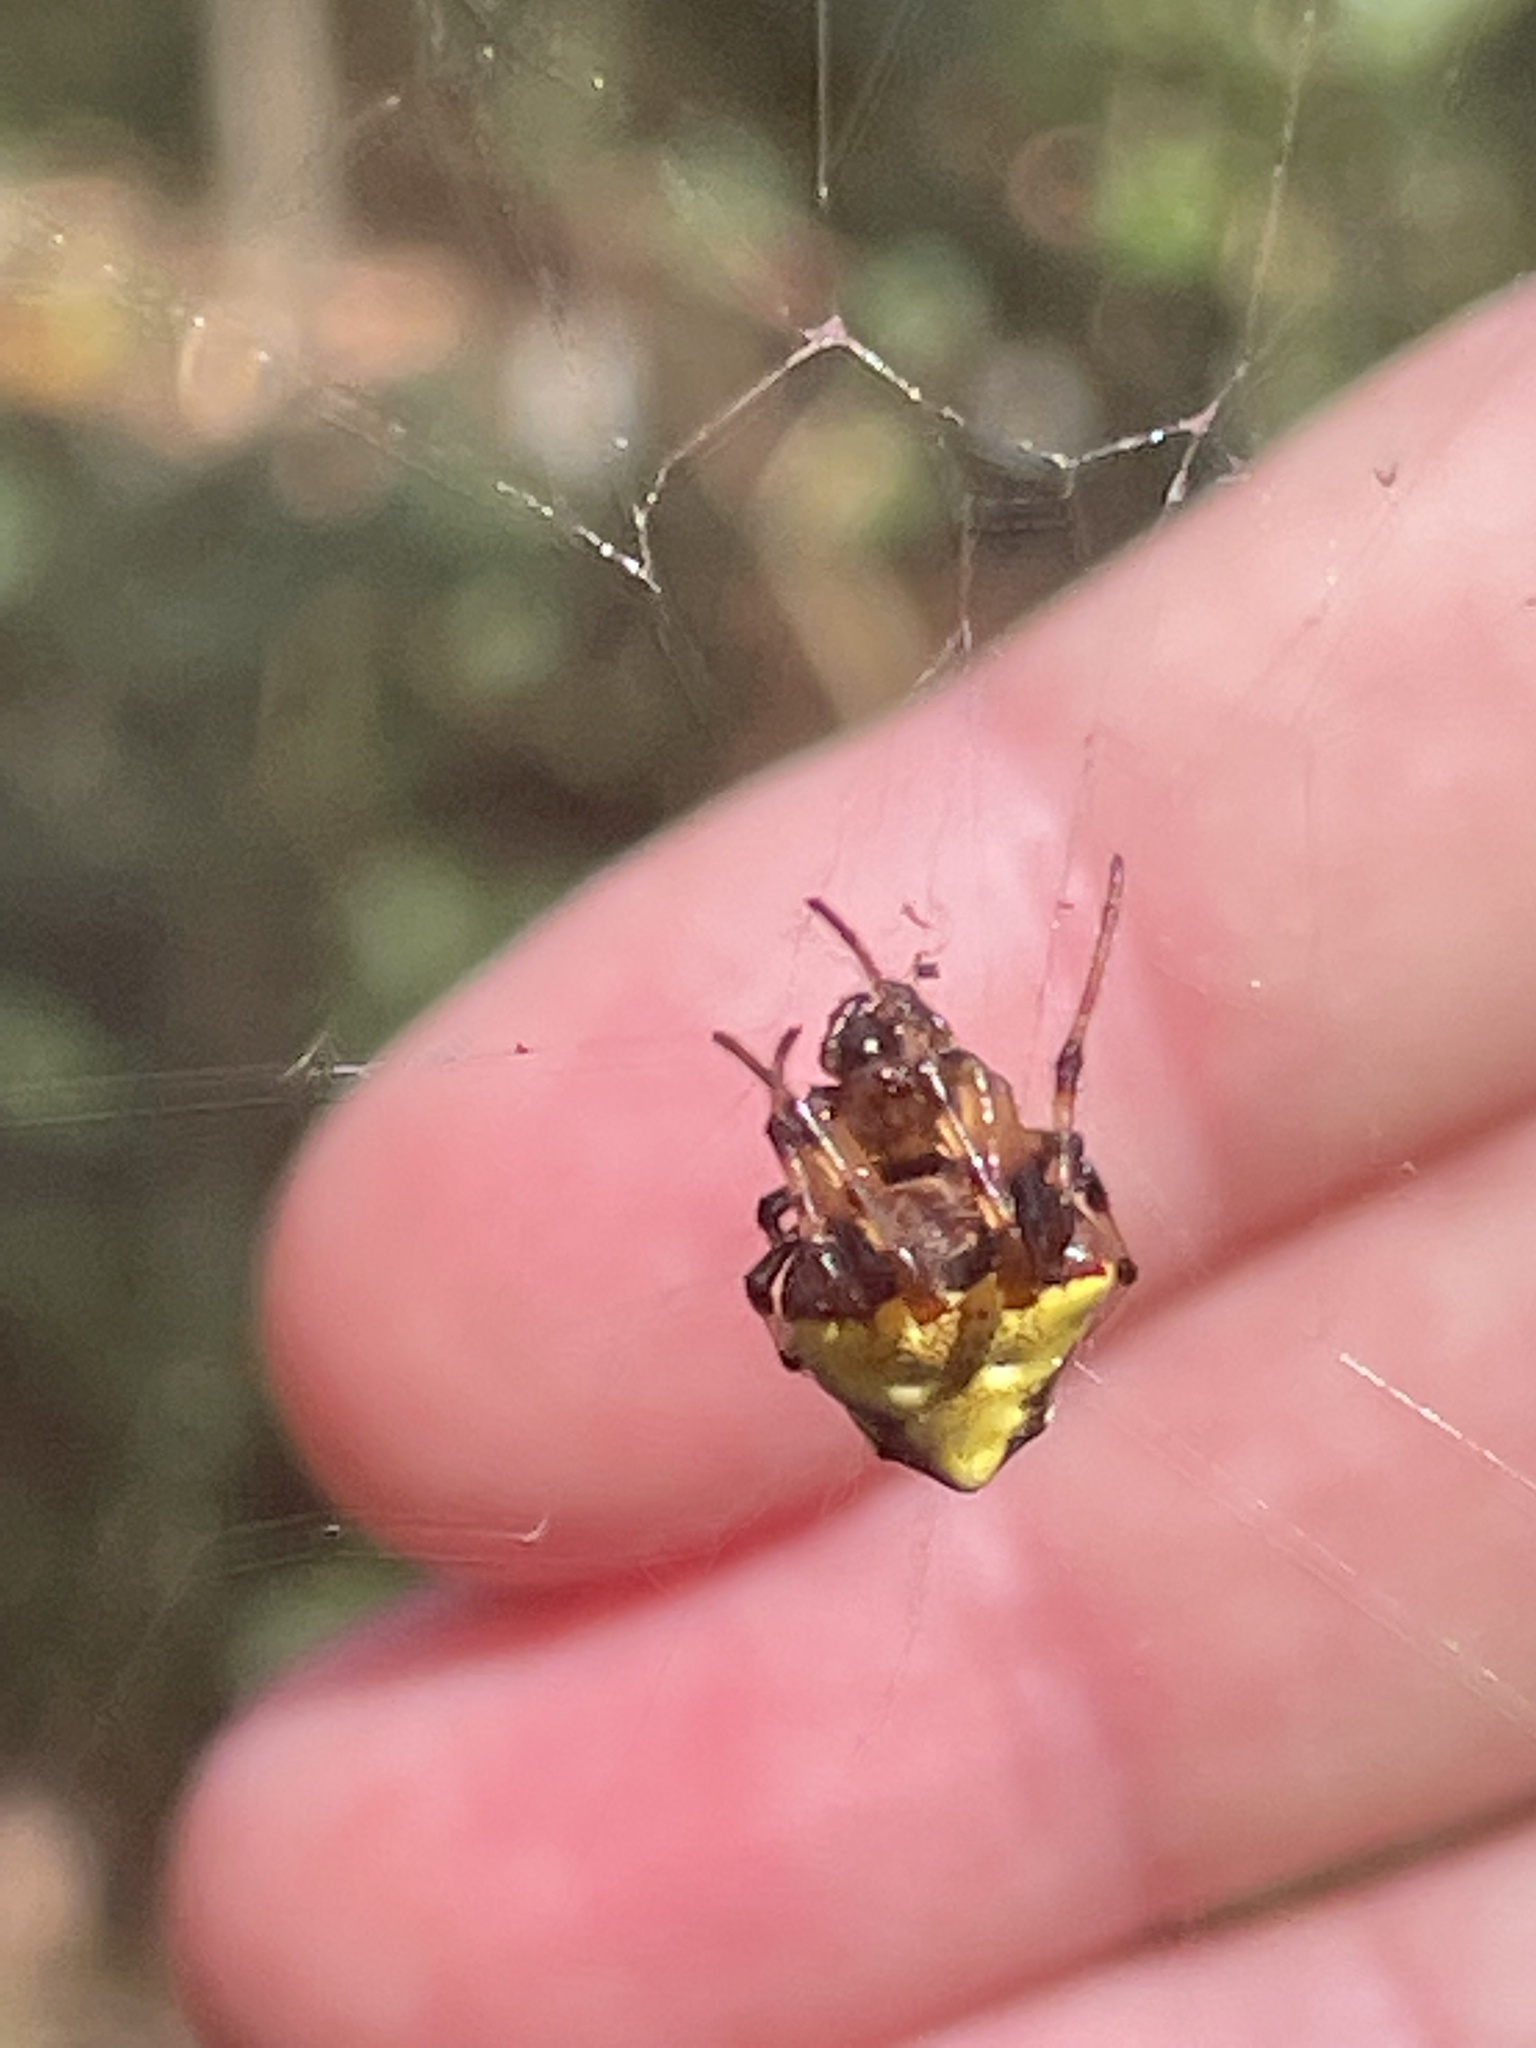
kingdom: Animalia
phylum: Arthropoda
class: Arachnida
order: Araneae
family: Araneidae
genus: Verrucosa
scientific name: Verrucosa arenata
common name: Orb weavers
